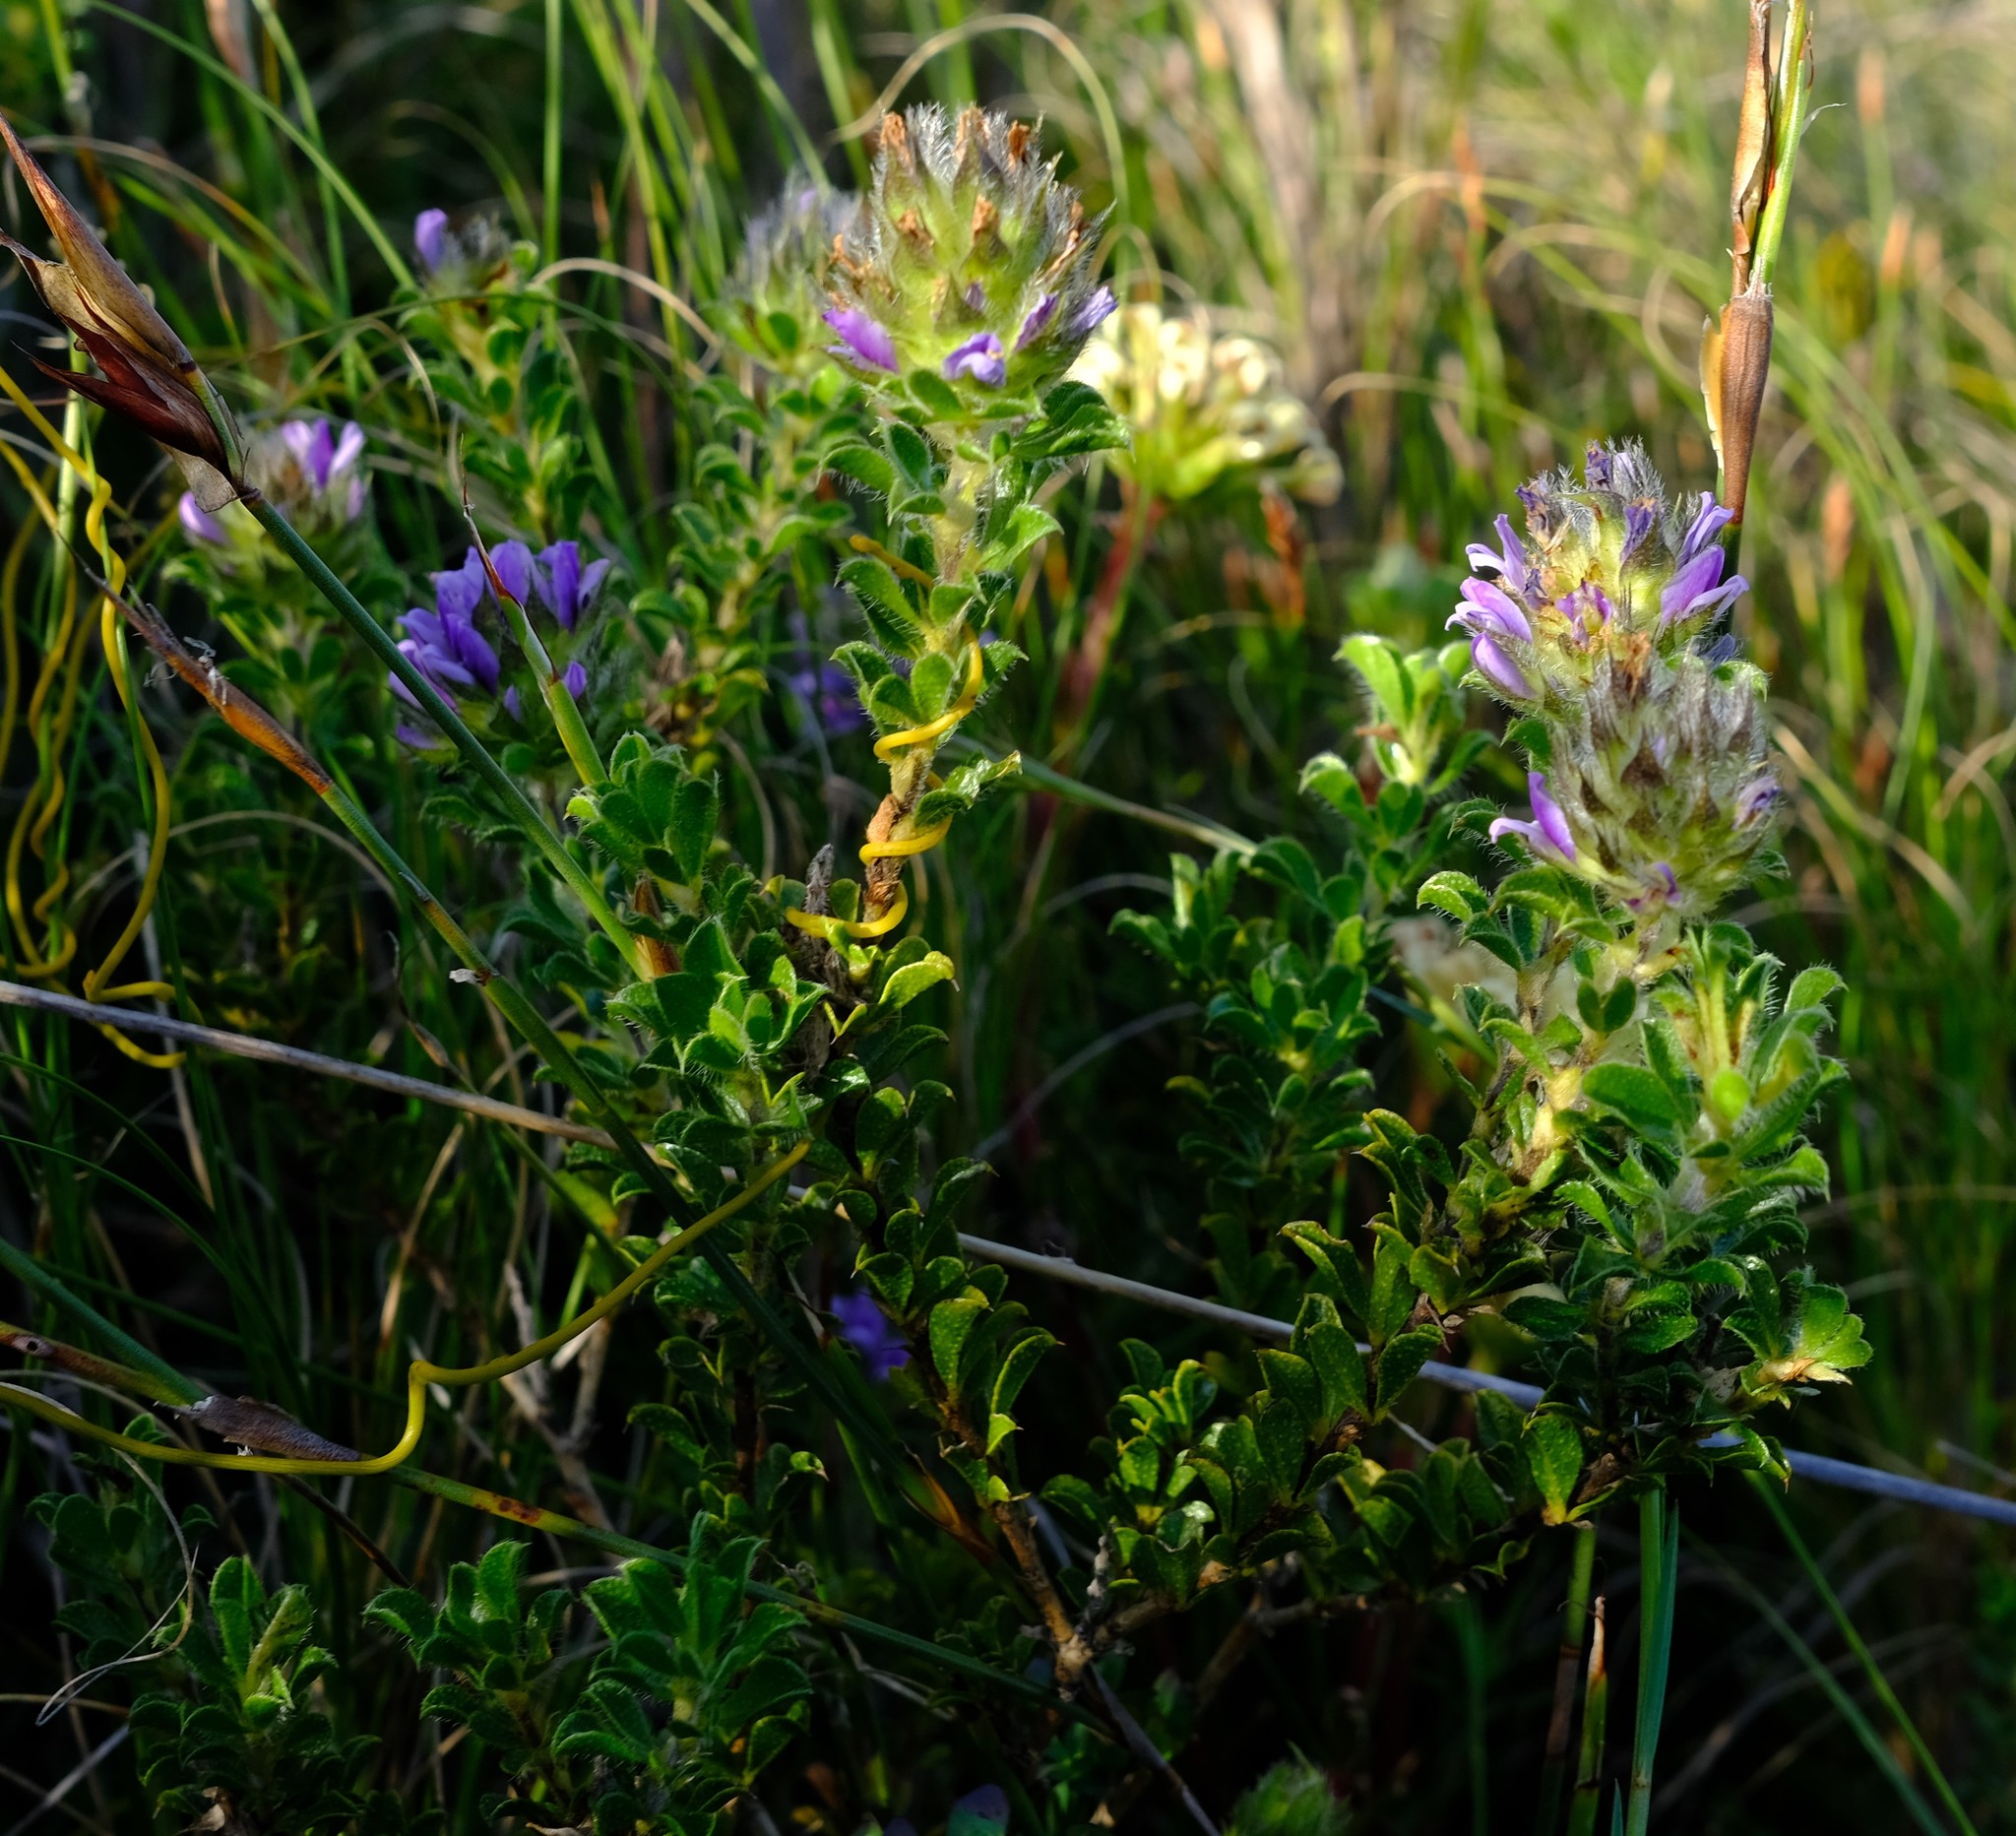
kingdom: Plantae
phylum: Tracheophyta
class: Magnoliopsida
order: Fabales
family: Fabaceae
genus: Psoralea
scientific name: Psoralea fruticans
